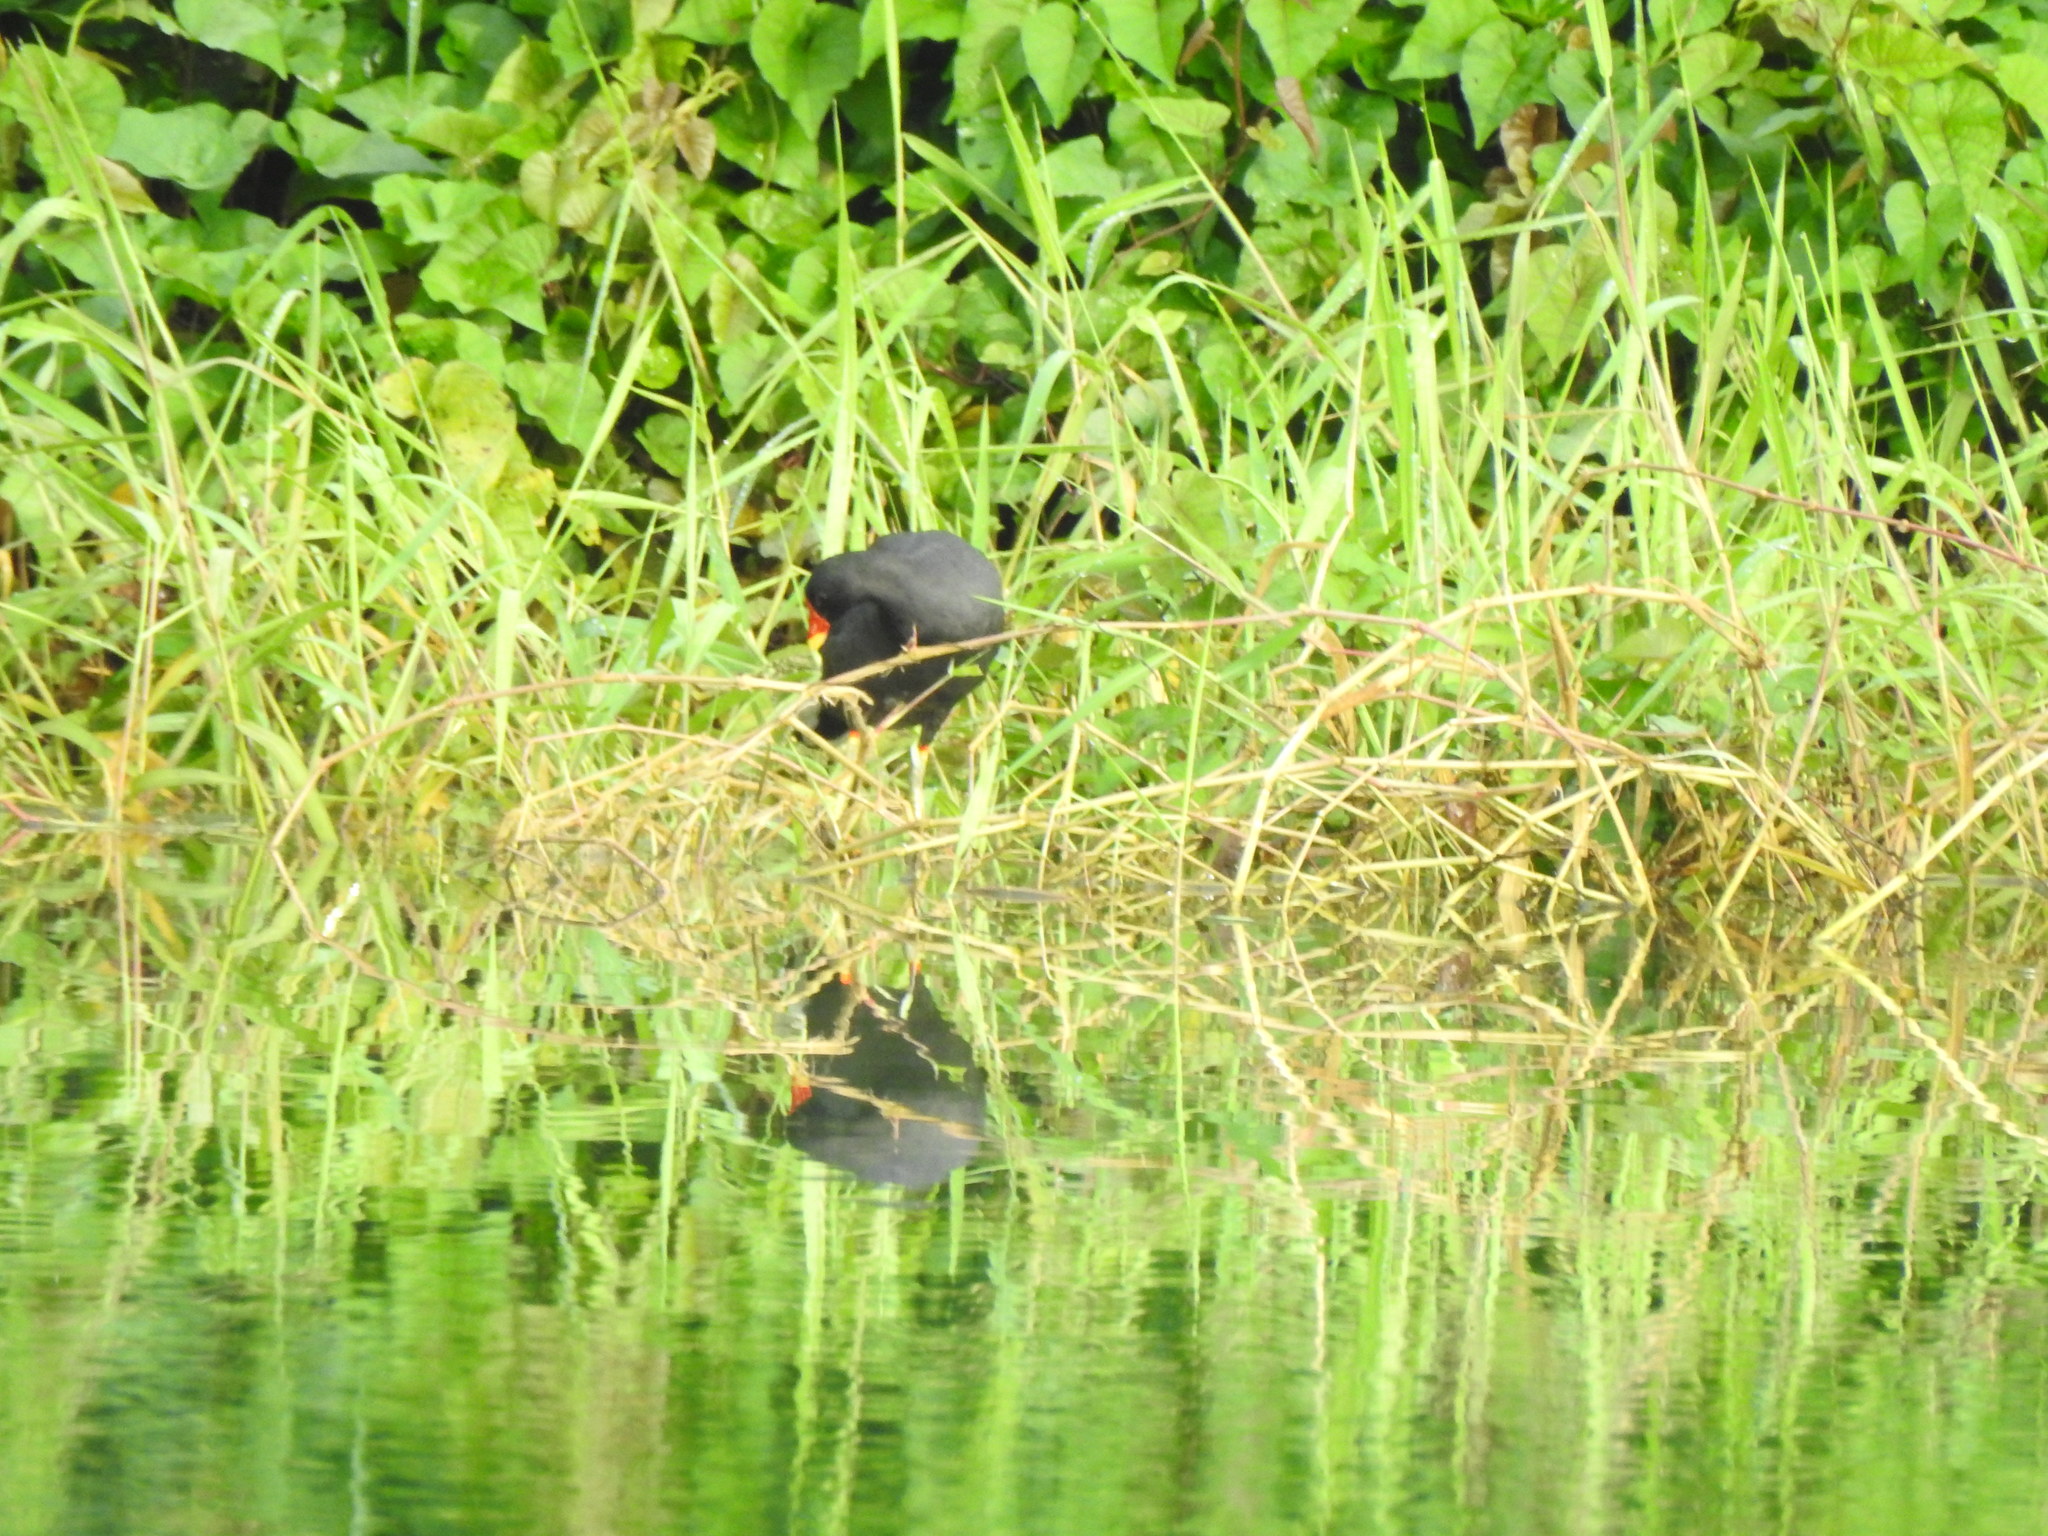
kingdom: Animalia
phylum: Chordata
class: Aves
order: Gruiformes
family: Rallidae
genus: Gallinula
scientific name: Gallinula chloropus
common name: Common moorhen
